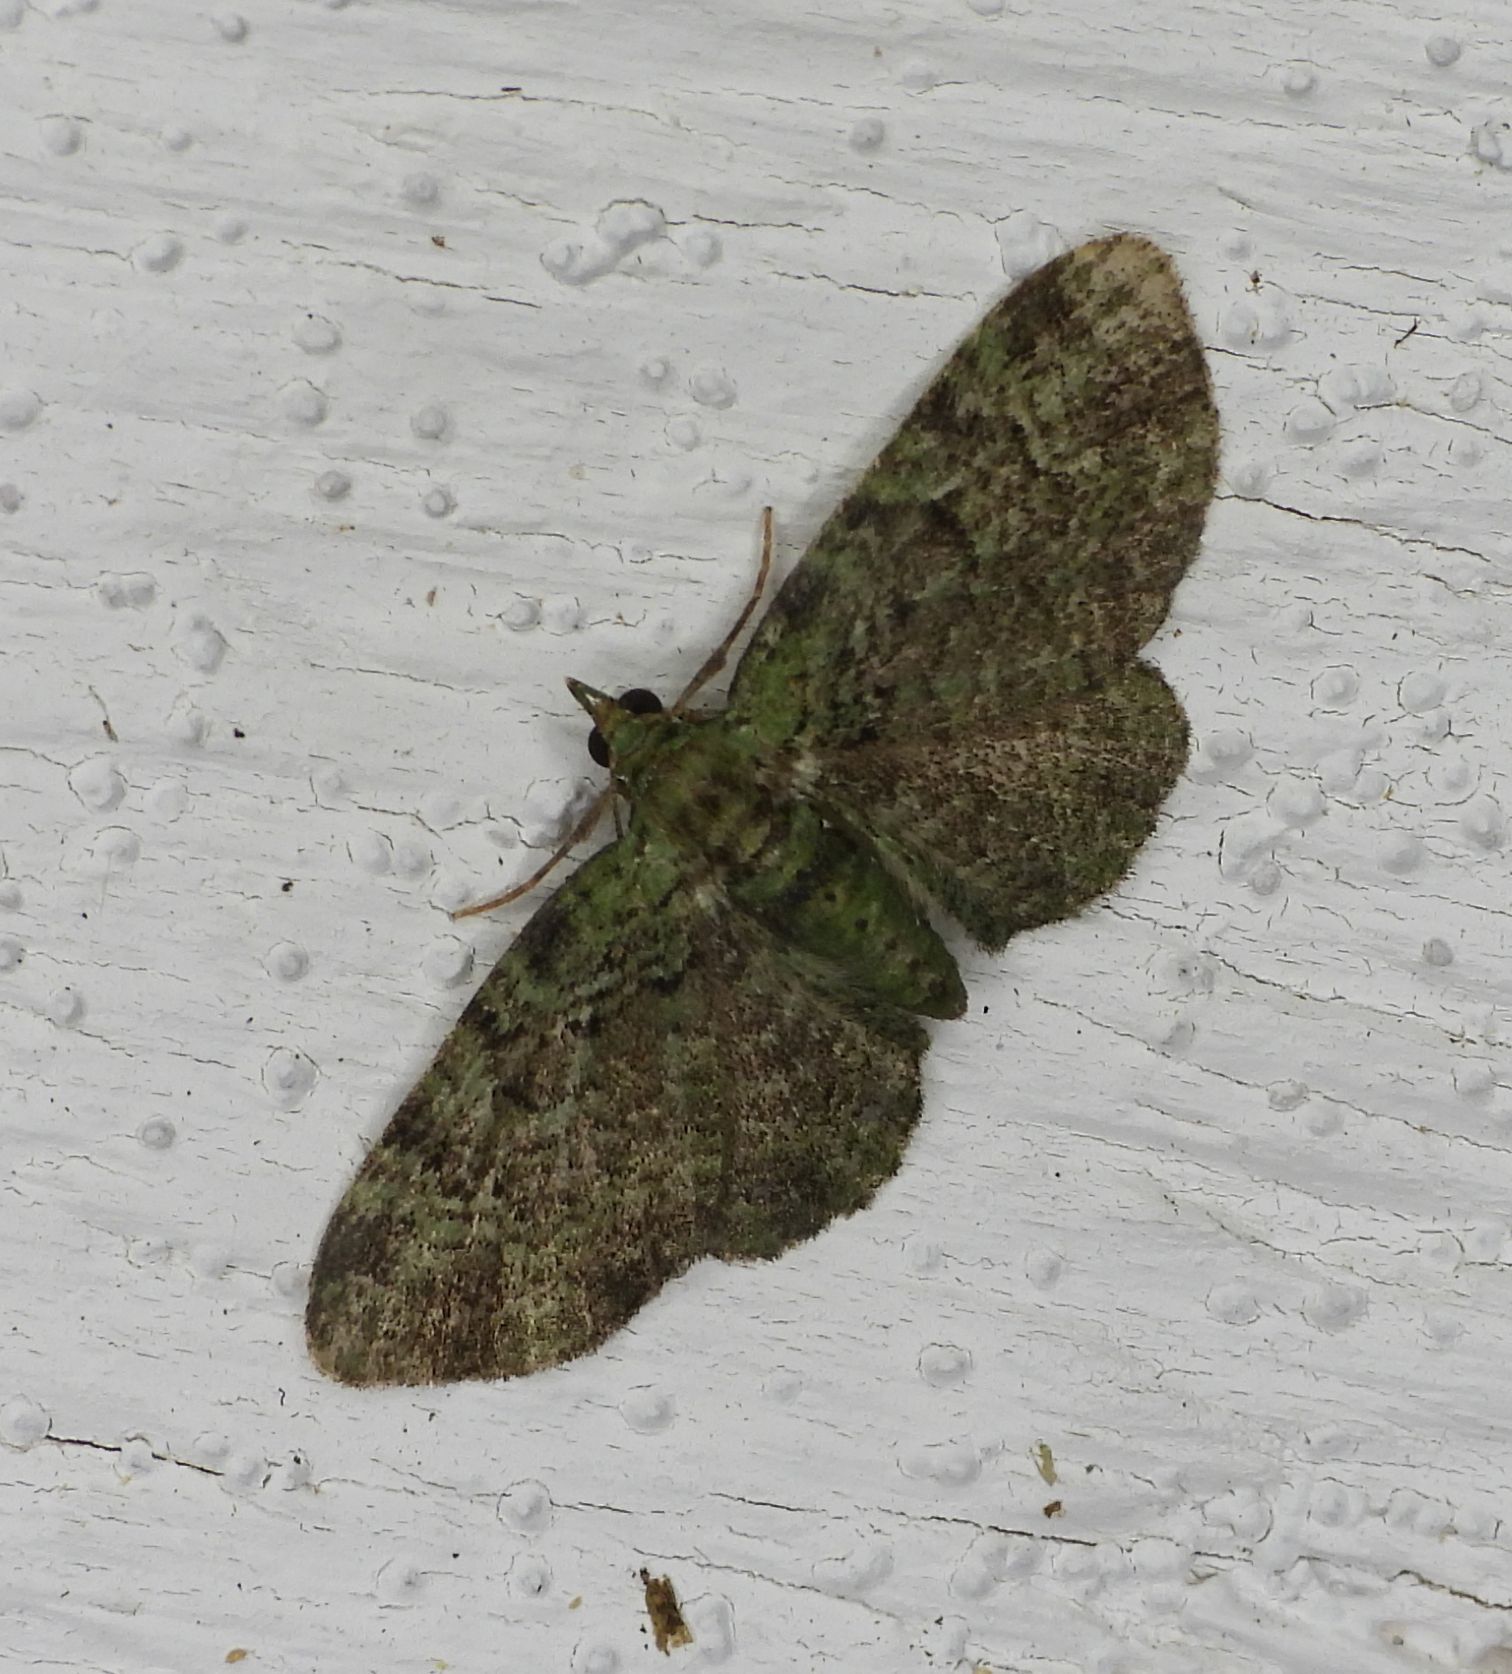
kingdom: Animalia
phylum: Arthropoda
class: Insecta
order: Lepidoptera
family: Geometridae
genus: Pasiphila
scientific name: Pasiphila rectangulata
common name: Green pug
